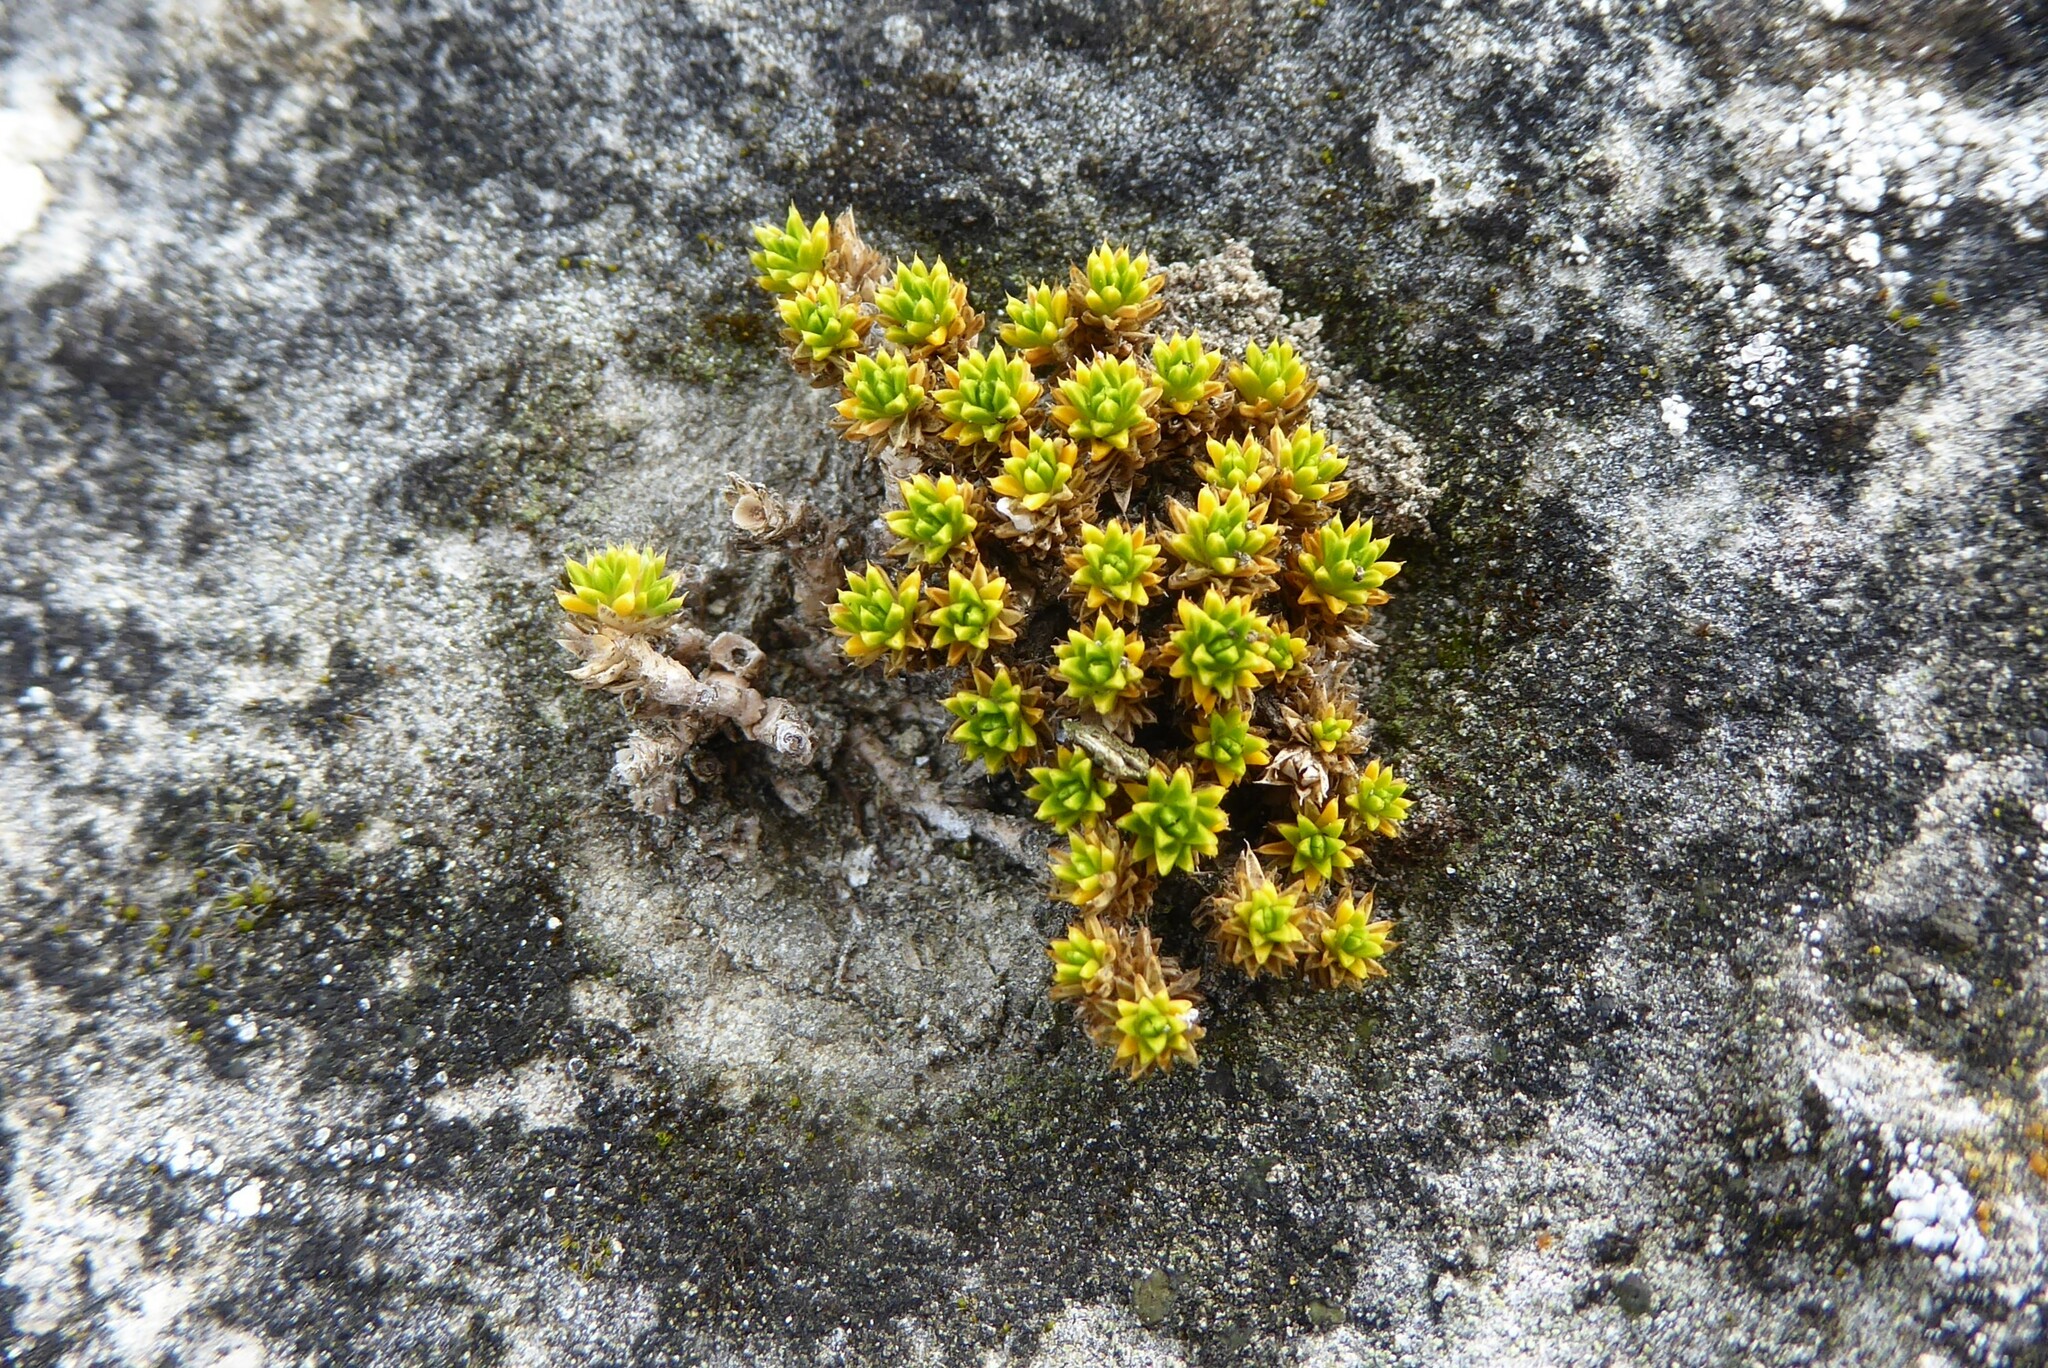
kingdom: Plantae
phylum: Tracheophyta
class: Magnoliopsida
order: Caryophyllales
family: Caryophyllaceae
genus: Colobanthus
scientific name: Colobanthus brevisepalus
